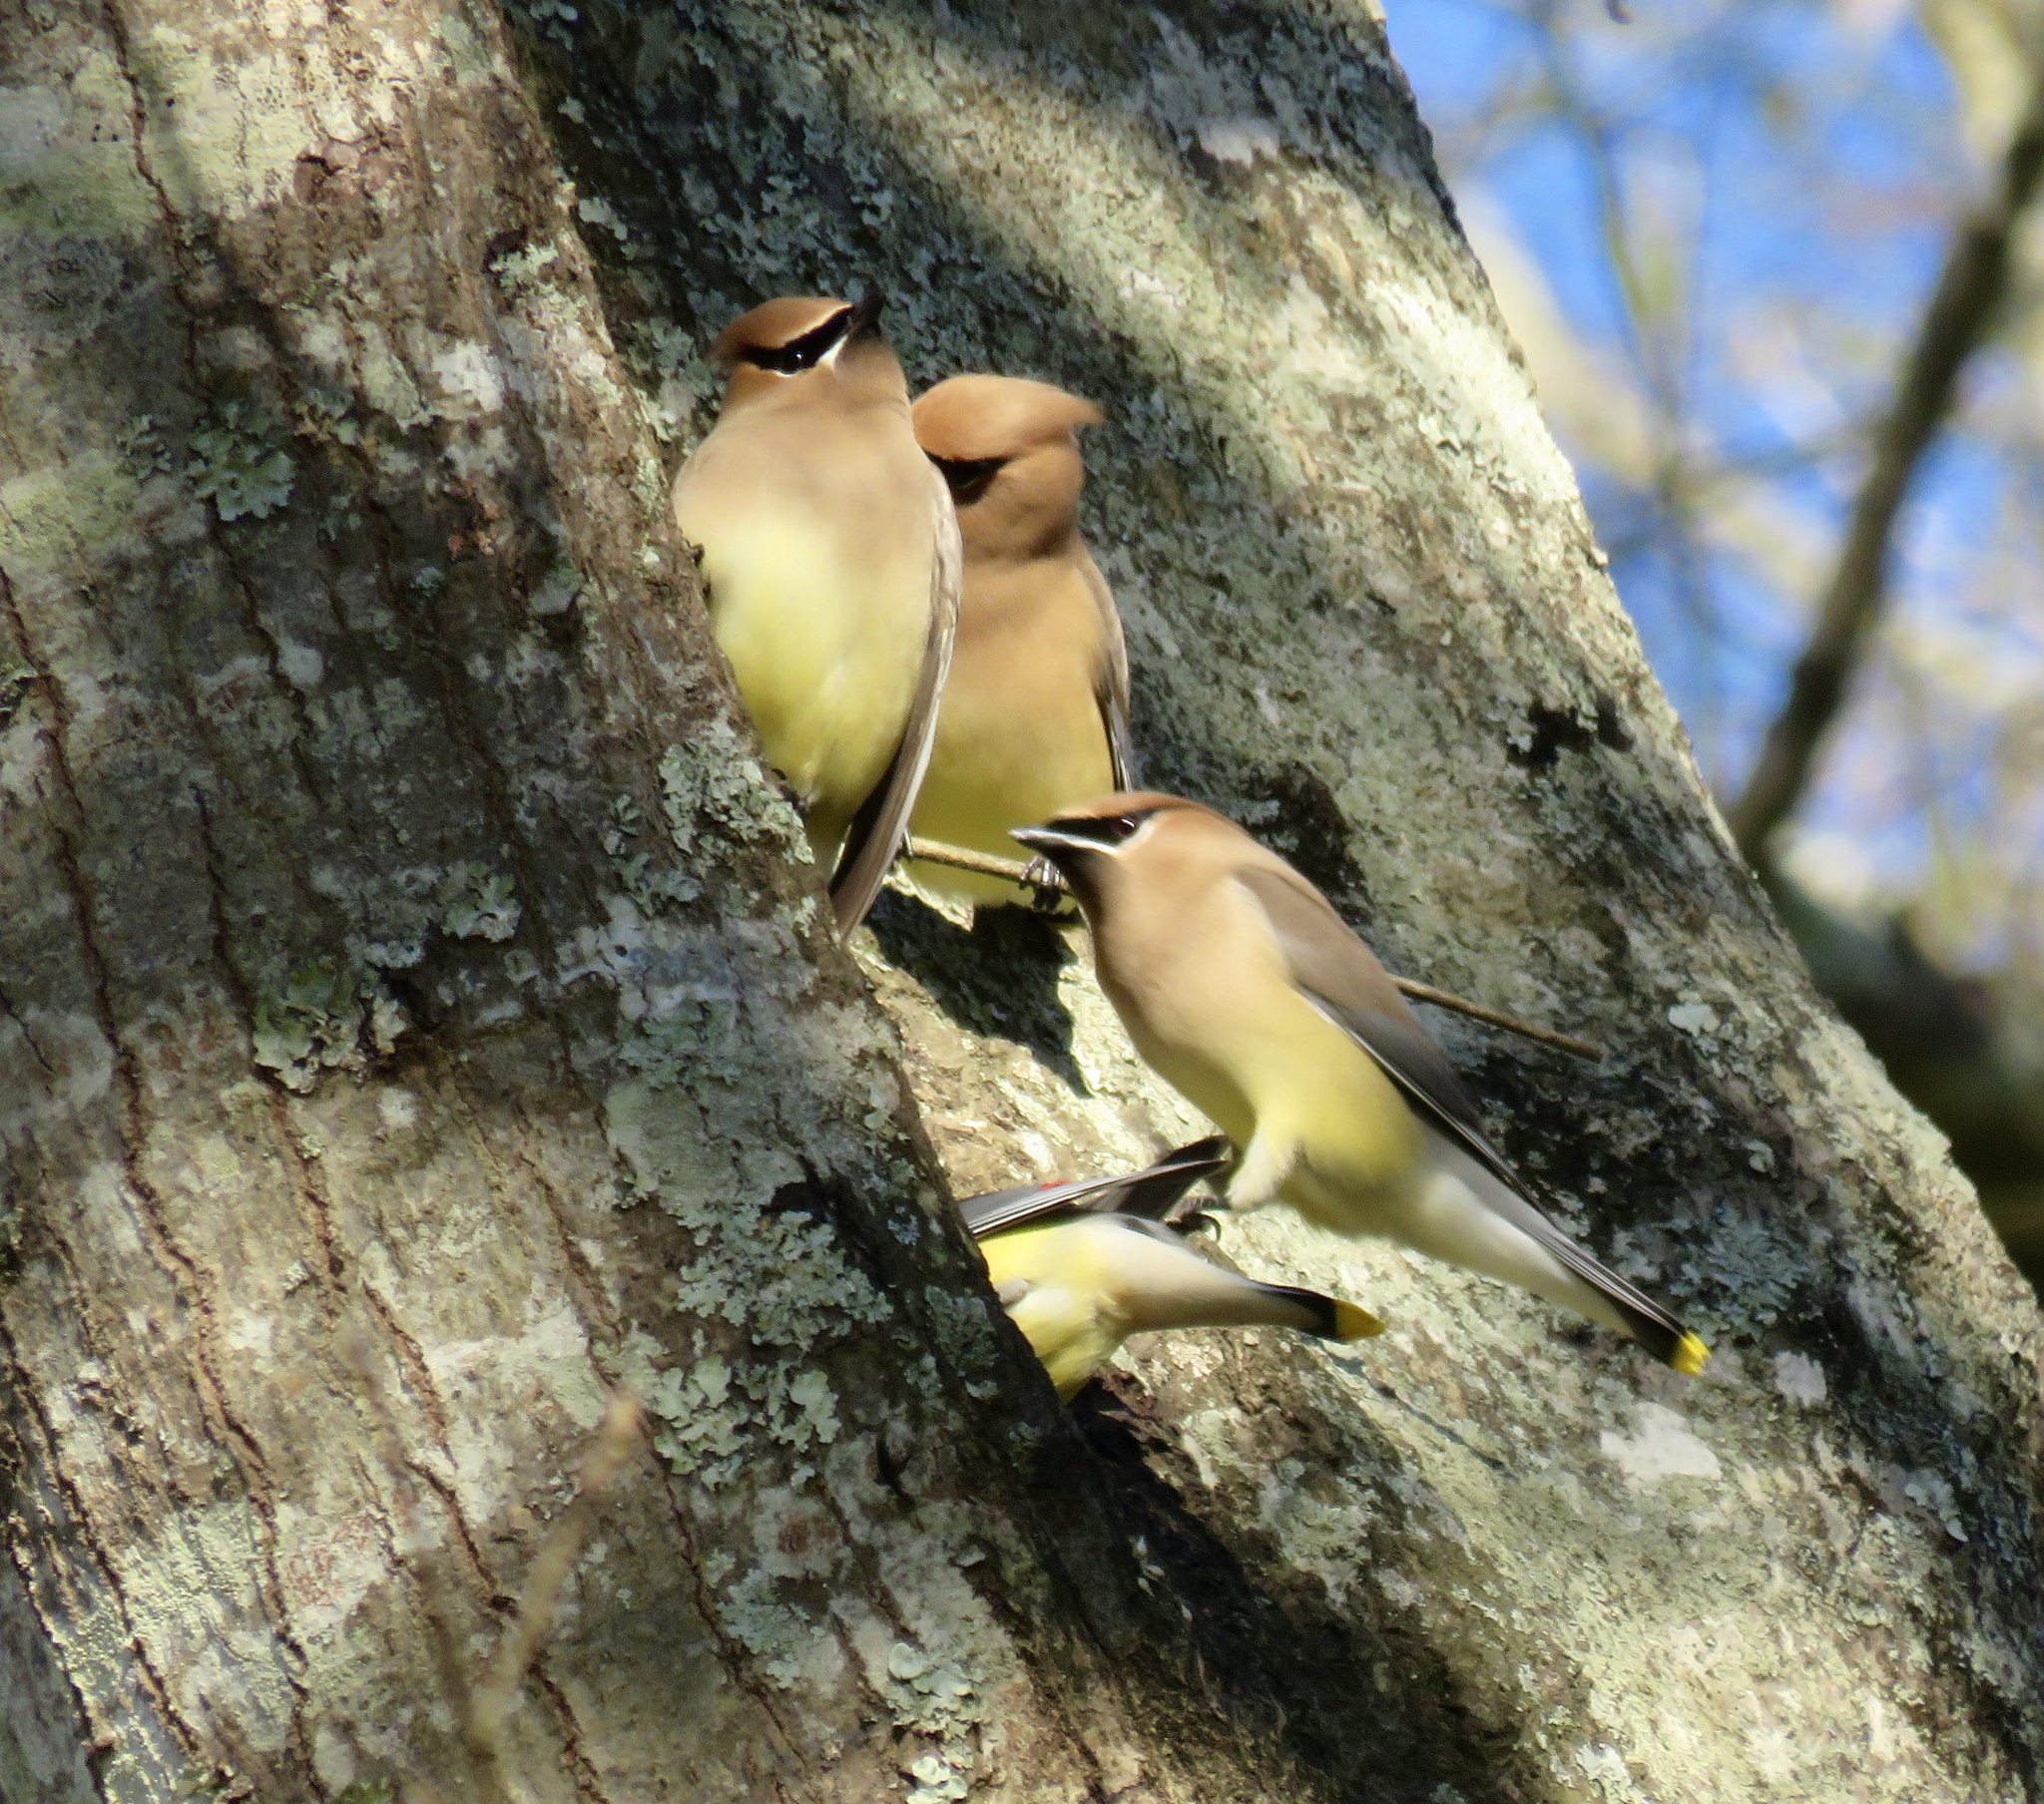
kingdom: Animalia
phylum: Chordata
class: Aves
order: Passeriformes
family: Bombycillidae
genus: Bombycilla
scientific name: Bombycilla cedrorum
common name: Cedar waxwing
